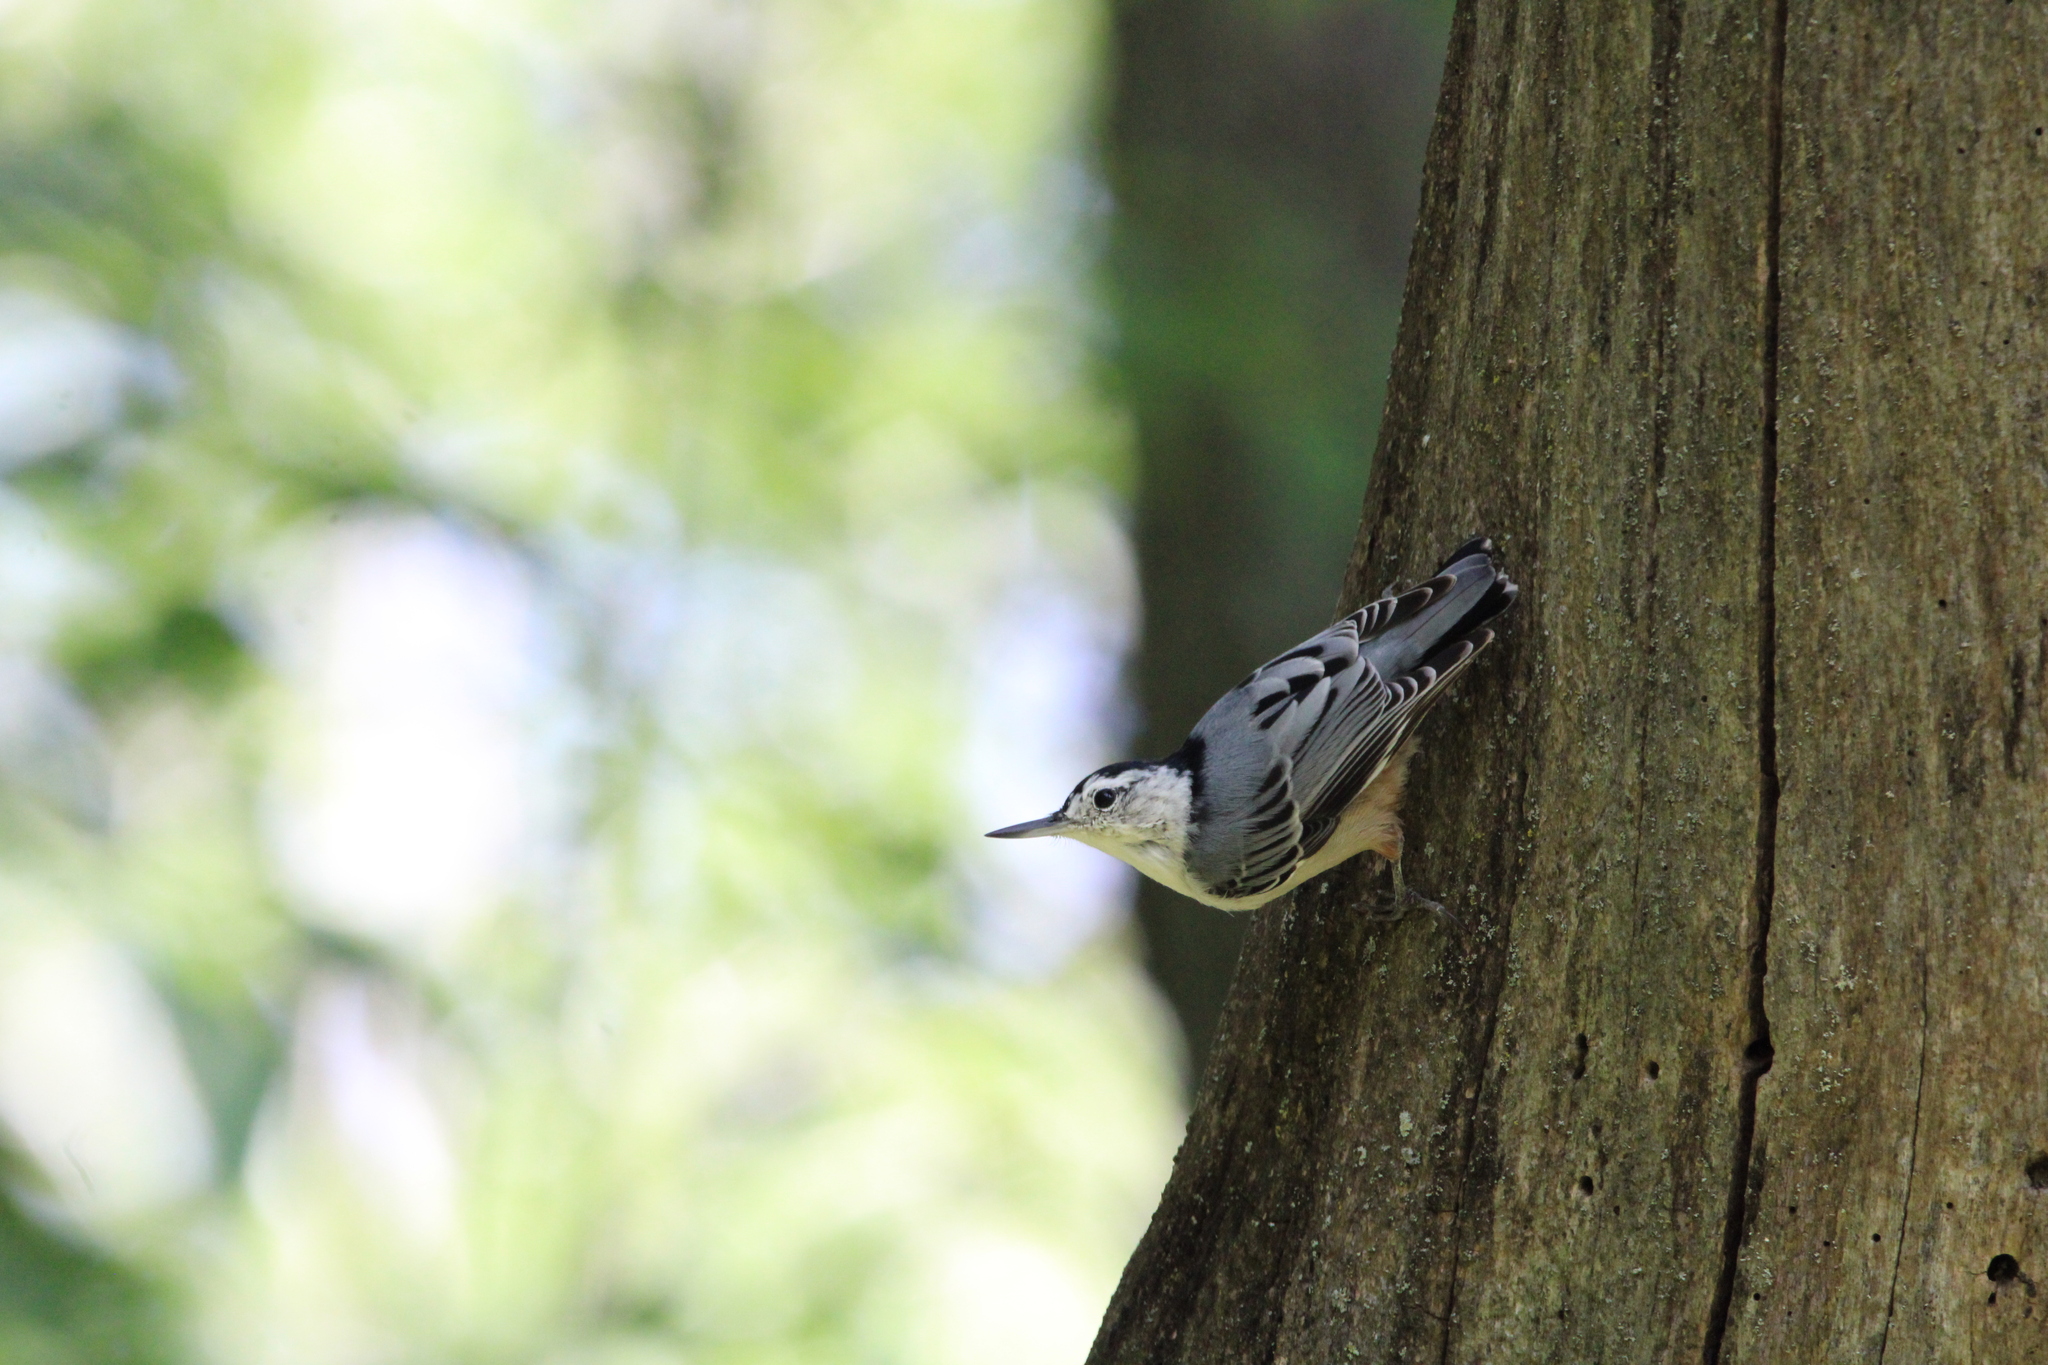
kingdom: Animalia
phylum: Chordata
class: Aves
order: Passeriformes
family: Sittidae
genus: Sitta
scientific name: Sitta carolinensis
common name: White-breasted nuthatch
